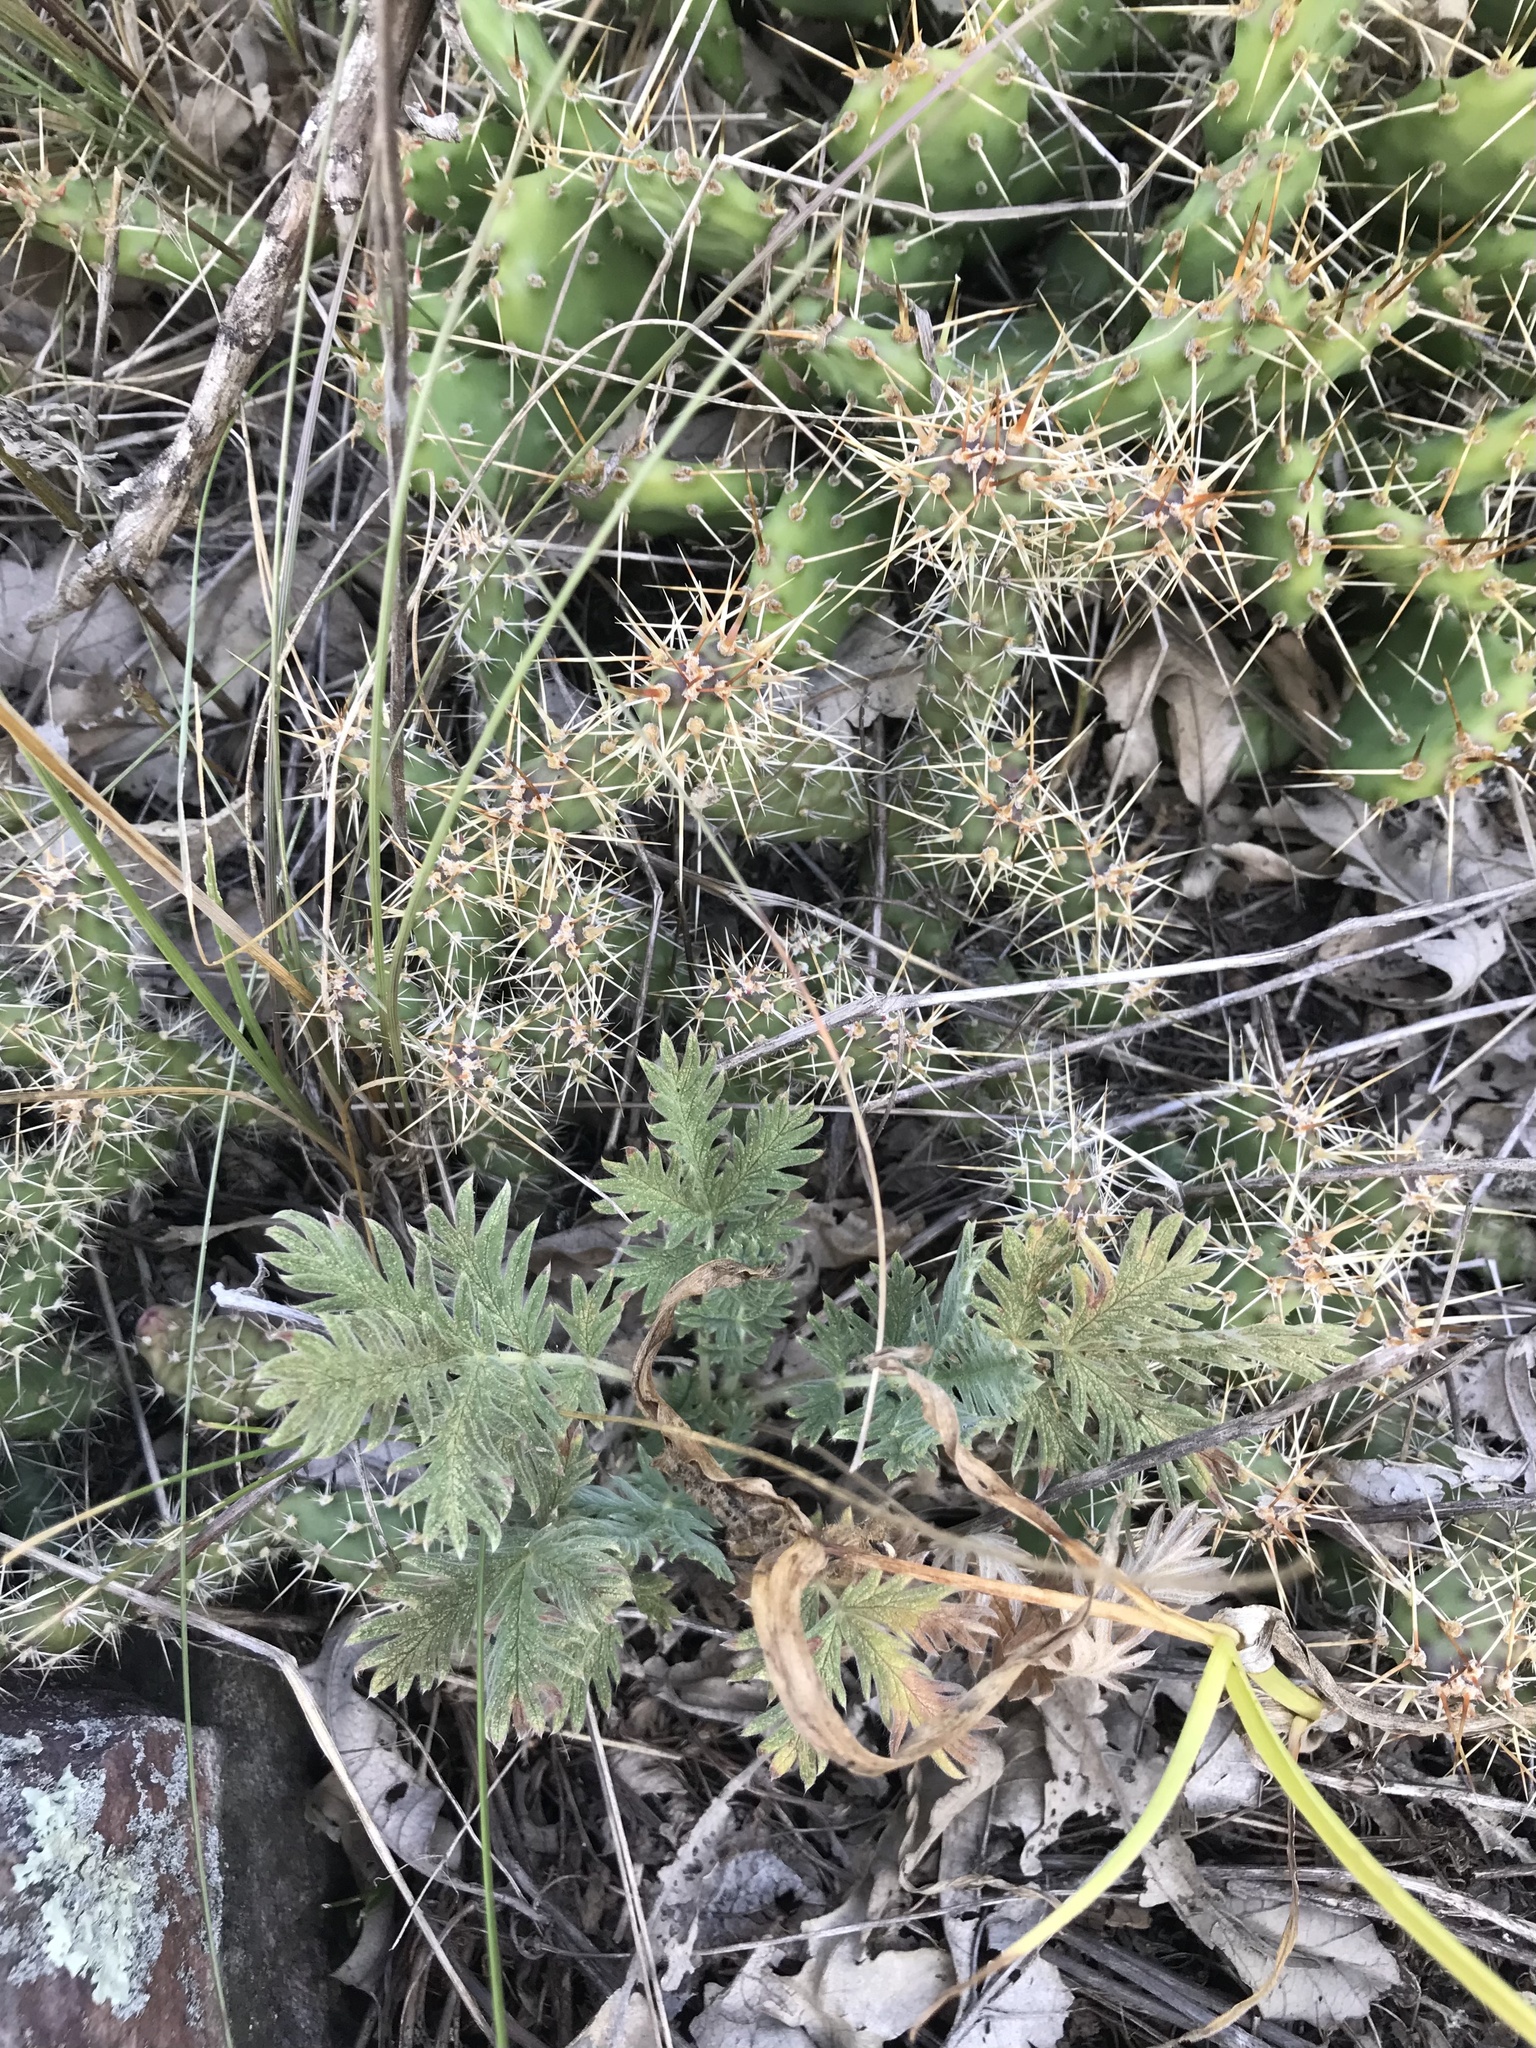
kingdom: Plantae
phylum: Tracheophyta
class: Magnoliopsida
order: Caryophyllales
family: Cactaceae
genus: Opuntia
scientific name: Opuntia fragilis
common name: Brittle cactus
